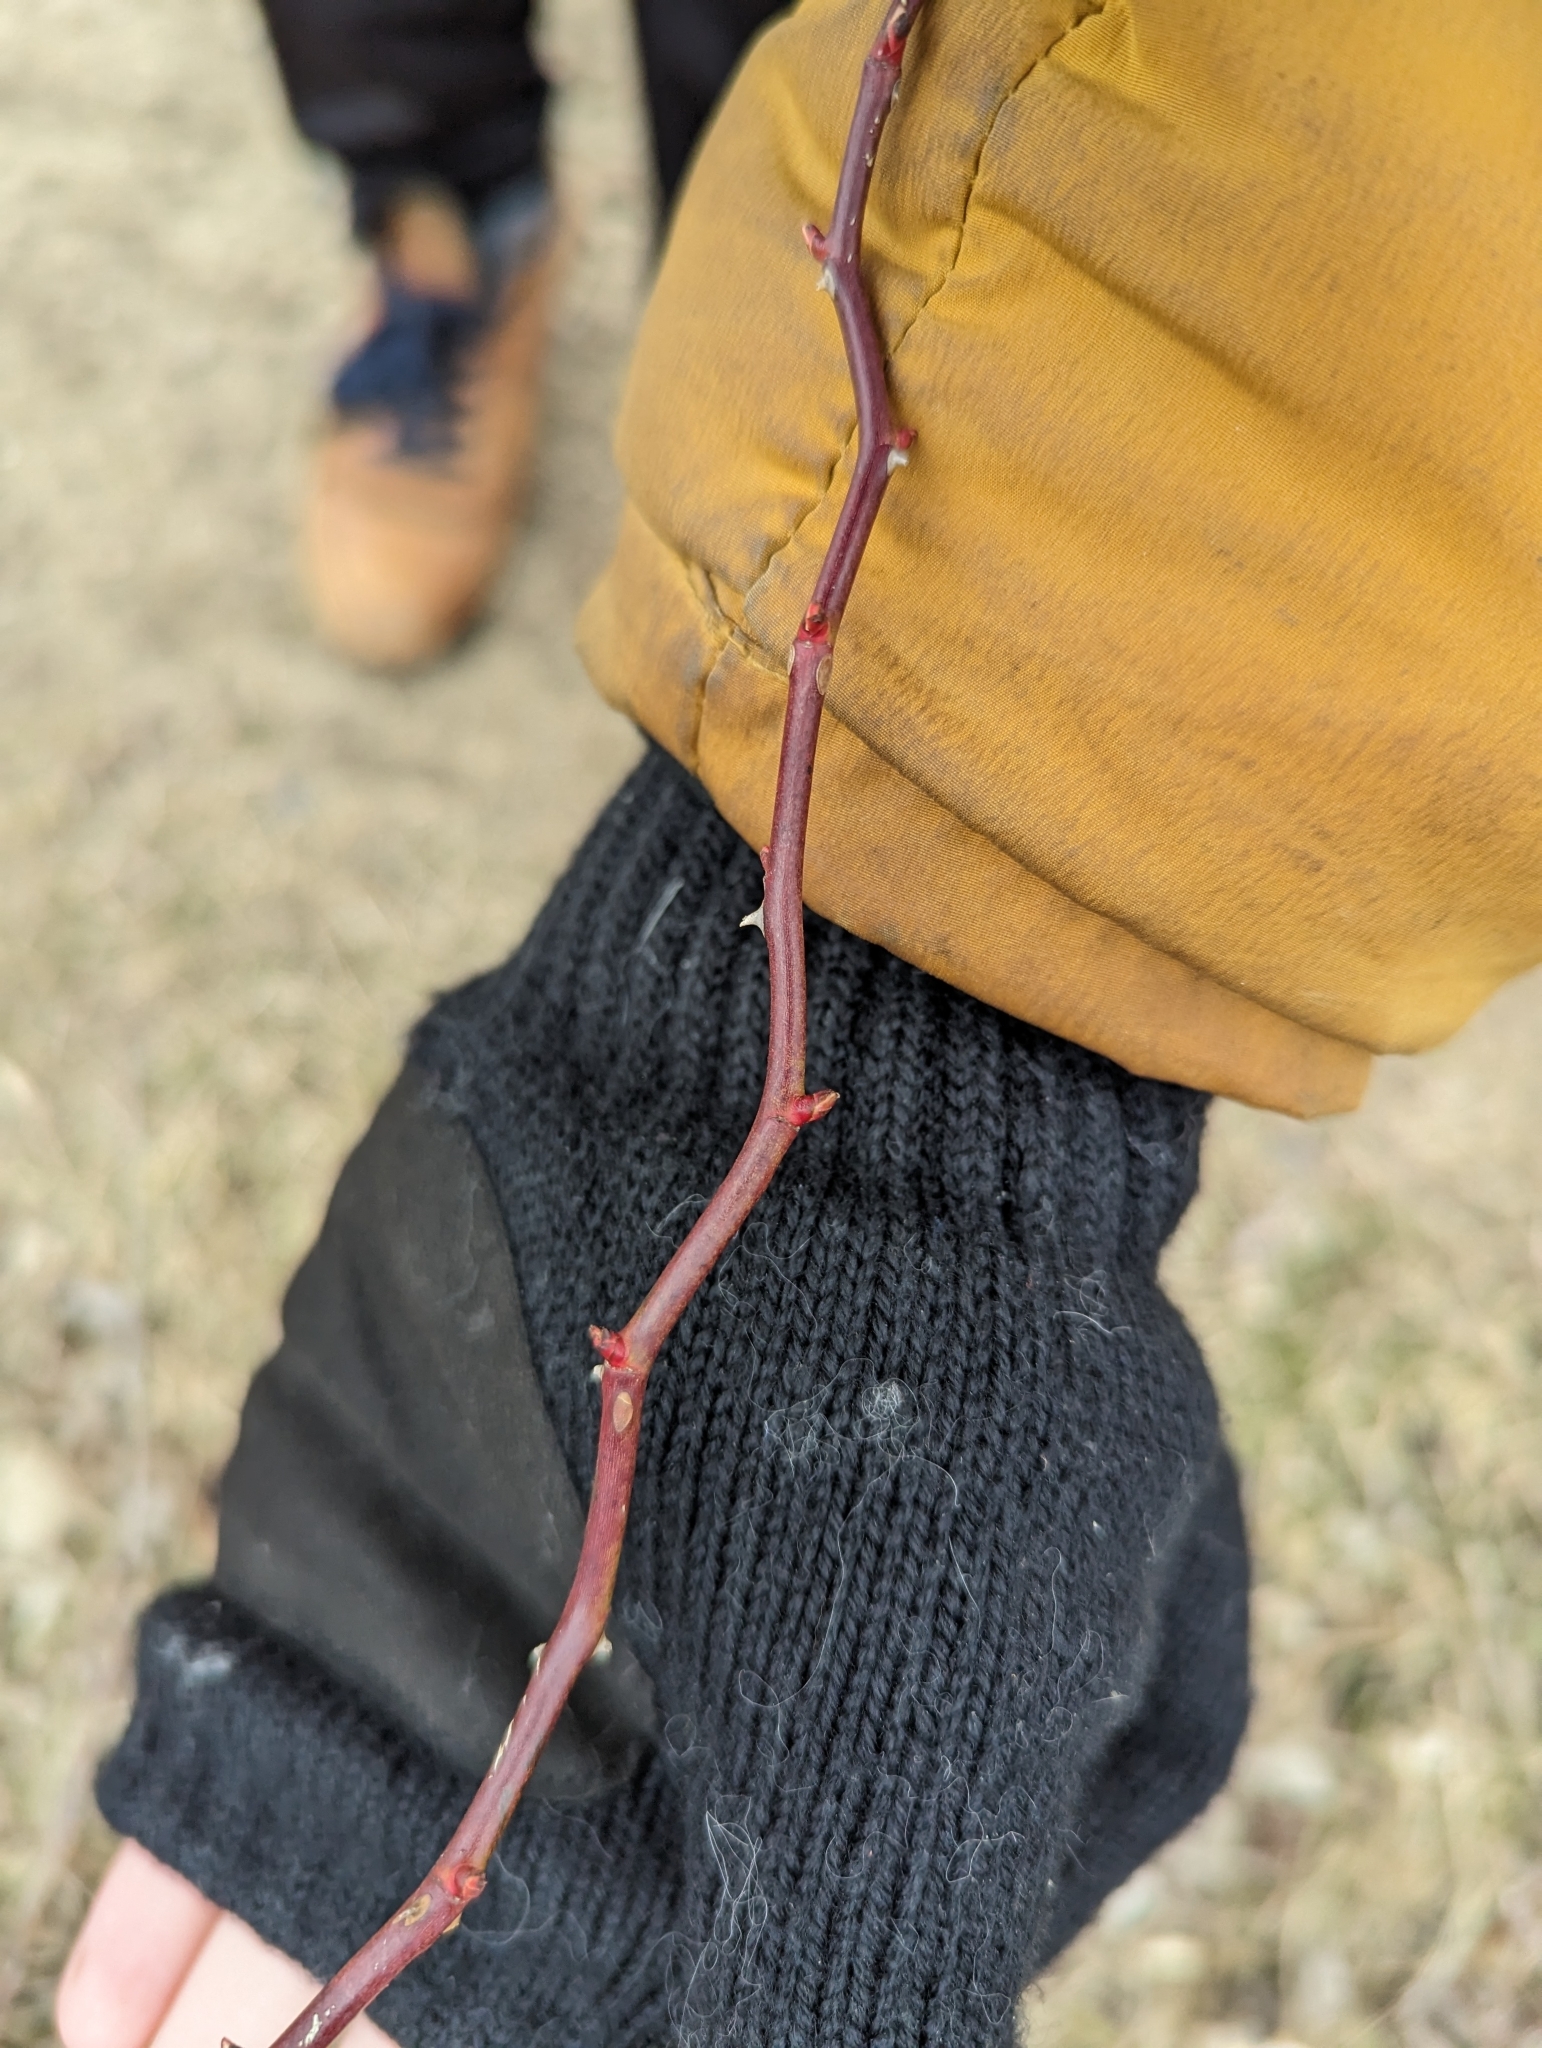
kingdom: Plantae
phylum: Tracheophyta
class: Magnoliopsida
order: Rosales
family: Rosaceae
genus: Rosa
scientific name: Rosa multiflora
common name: Multiflora rose
